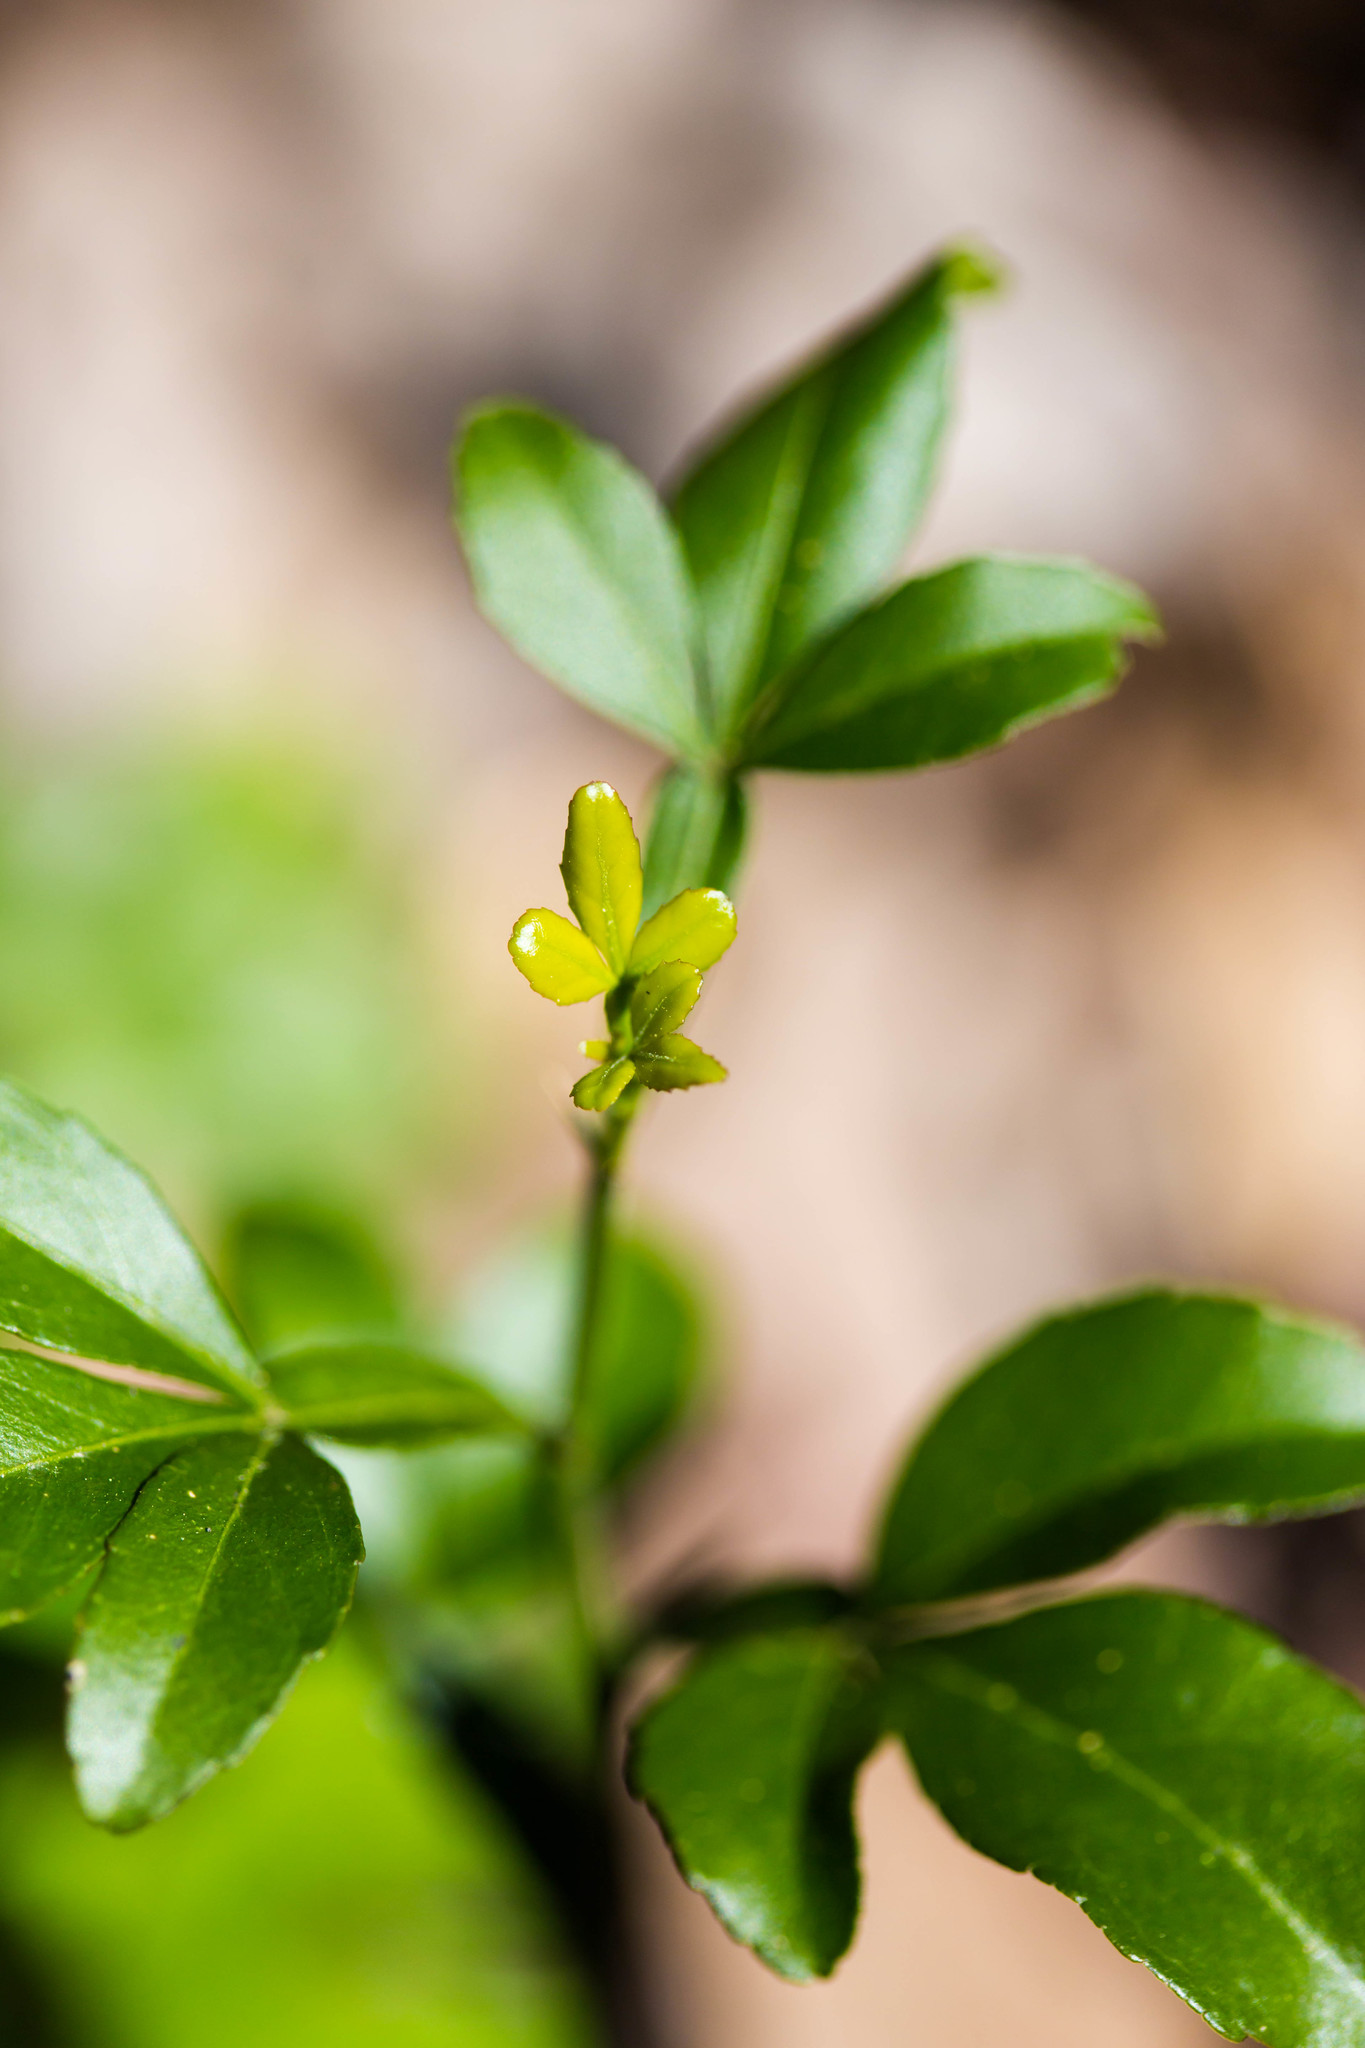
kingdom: Plantae
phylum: Tracheophyta
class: Magnoliopsida
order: Sapindales
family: Rutaceae
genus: Citrus
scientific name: Citrus trifoliata
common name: Japanese bitter-orange
